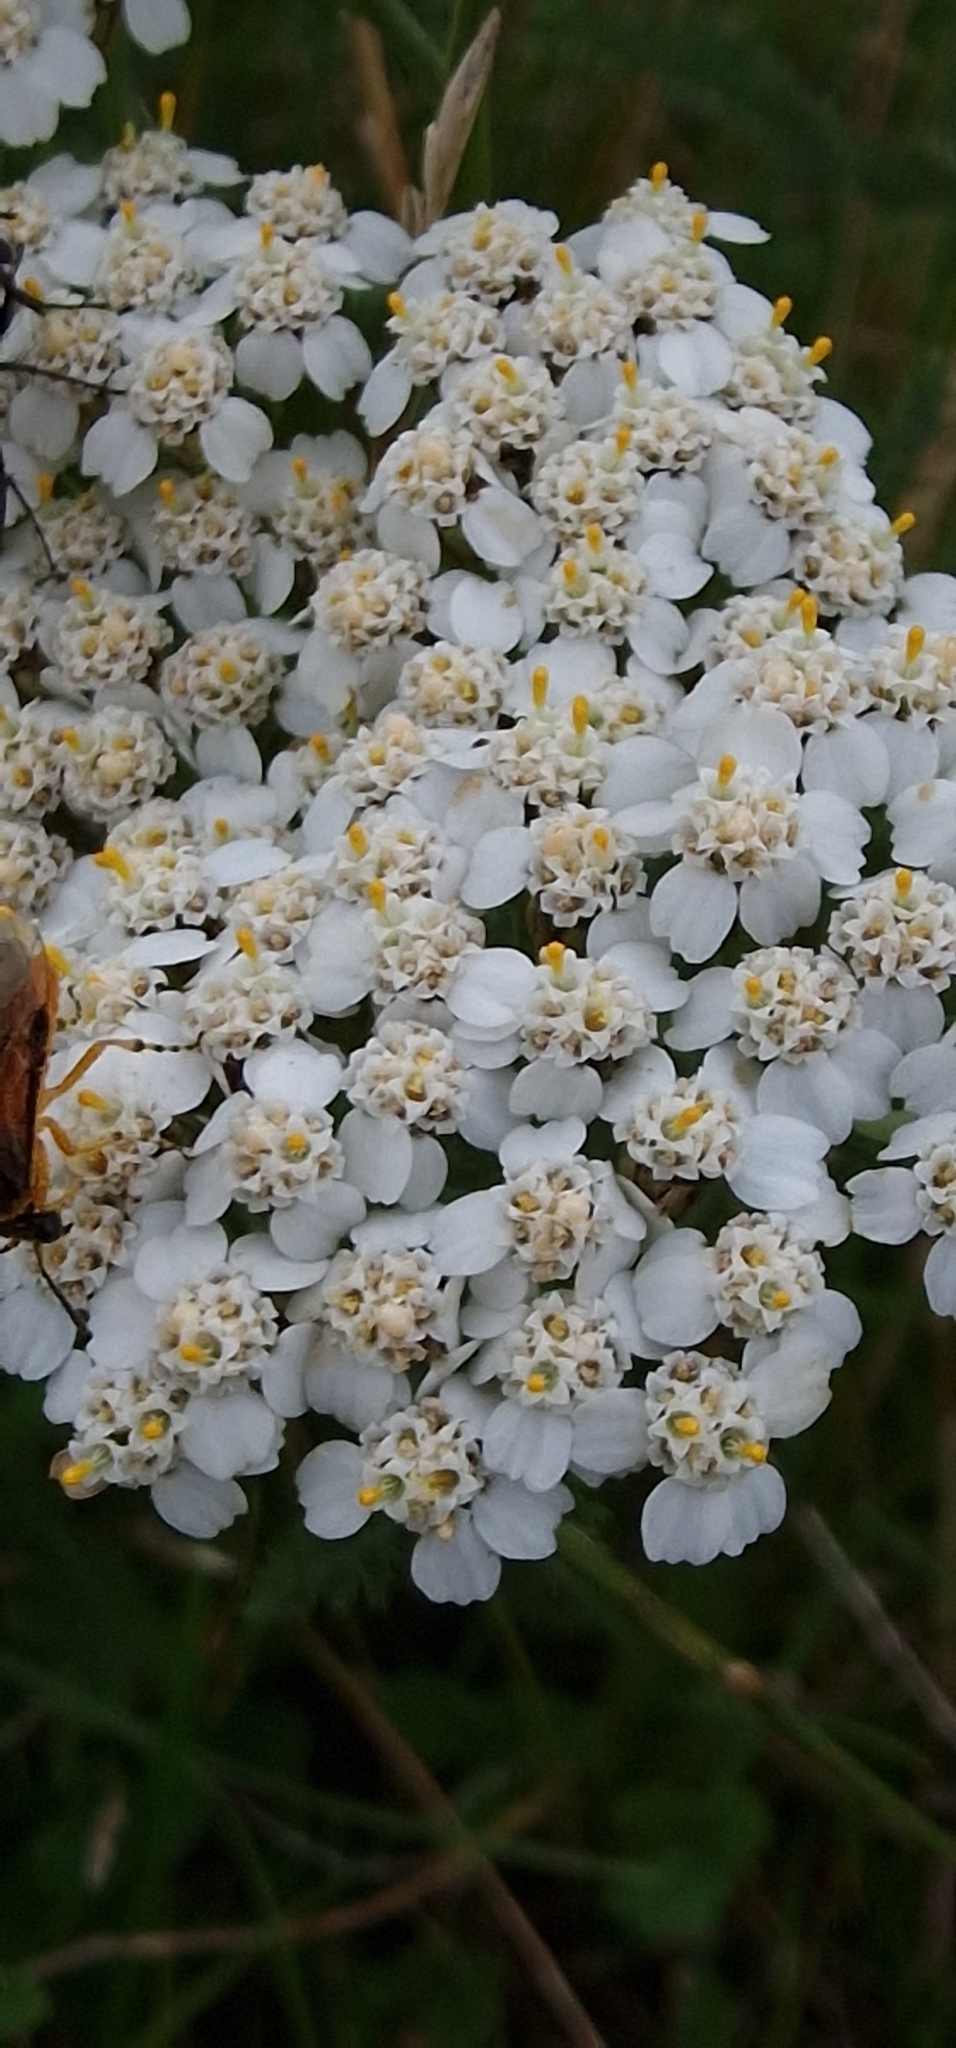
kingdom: Plantae
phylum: Tracheophyta
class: Magnoliopsida
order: Asterales
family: Asteraceae
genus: Achillea
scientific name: Achillea millefolium
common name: Yarrow
